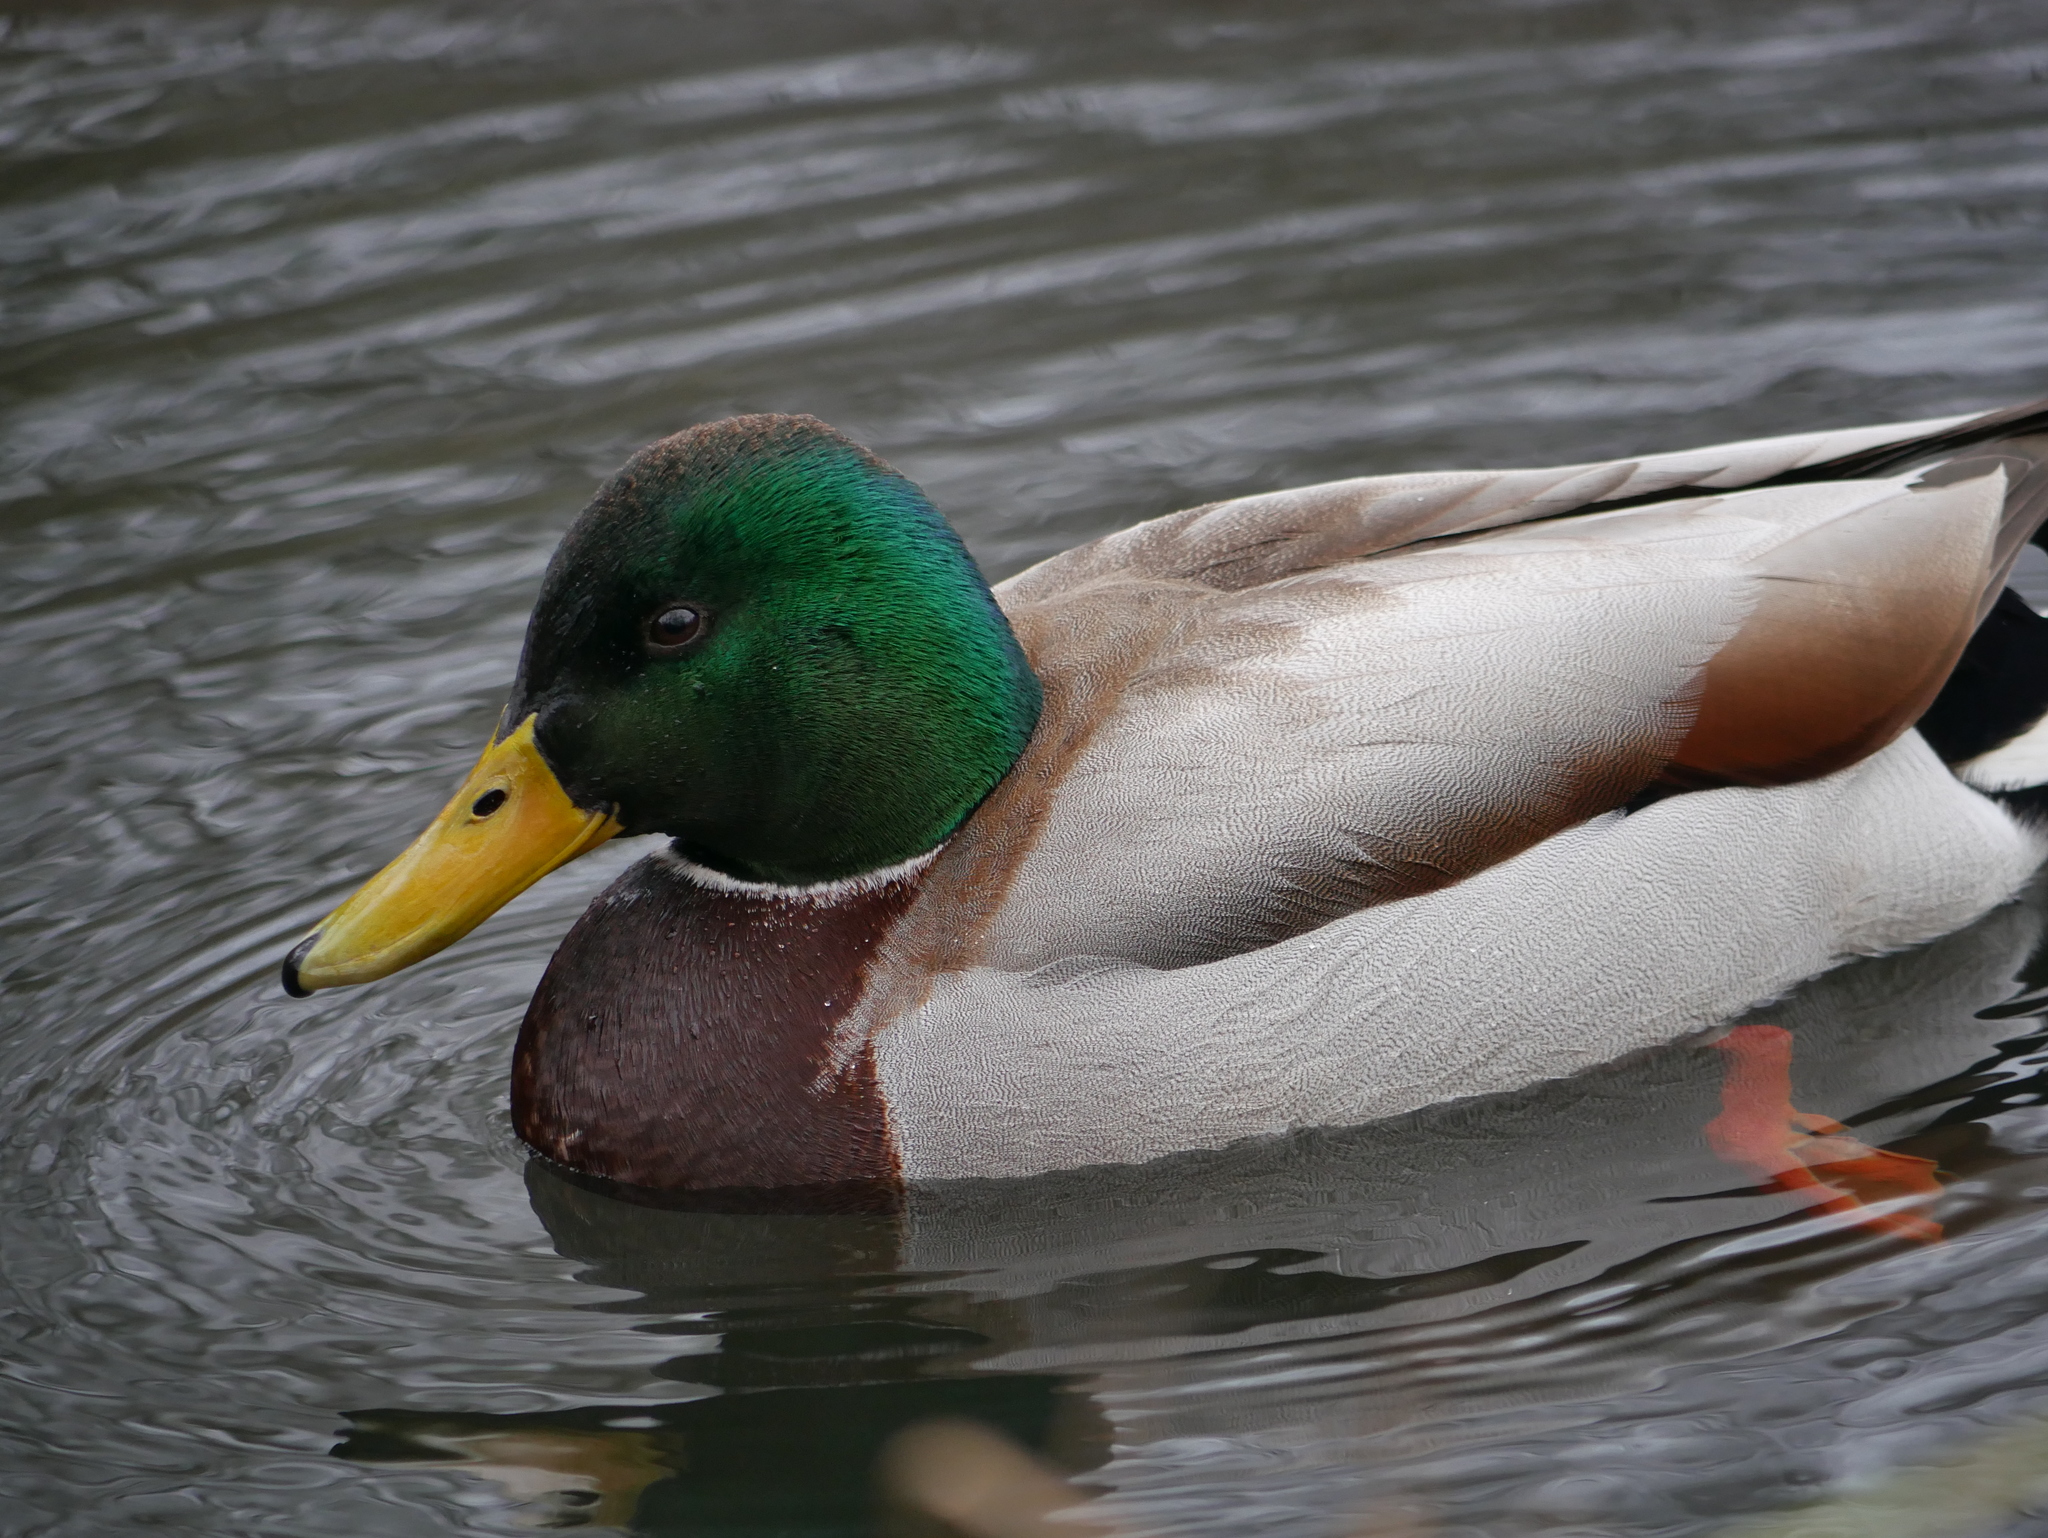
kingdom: Animalia
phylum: Chordata
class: Aves
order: Anseriformes
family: Anatidae
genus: Anas
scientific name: Anas platyrhynchos
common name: Mallard
